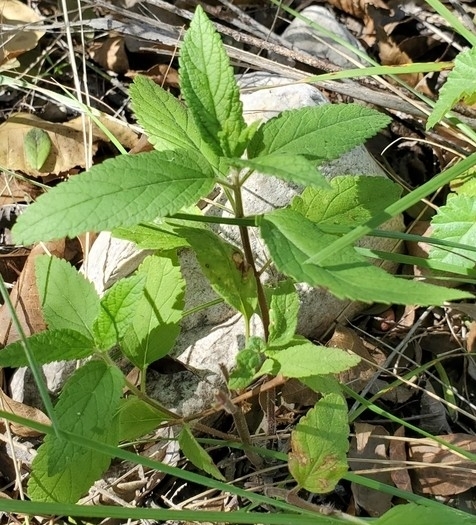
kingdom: Plantae
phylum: Tracheophyta
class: Magnoliopsida
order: Lamiales
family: Lamiaceae
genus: Teucrium
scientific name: Teucrium canadense
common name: American germander
